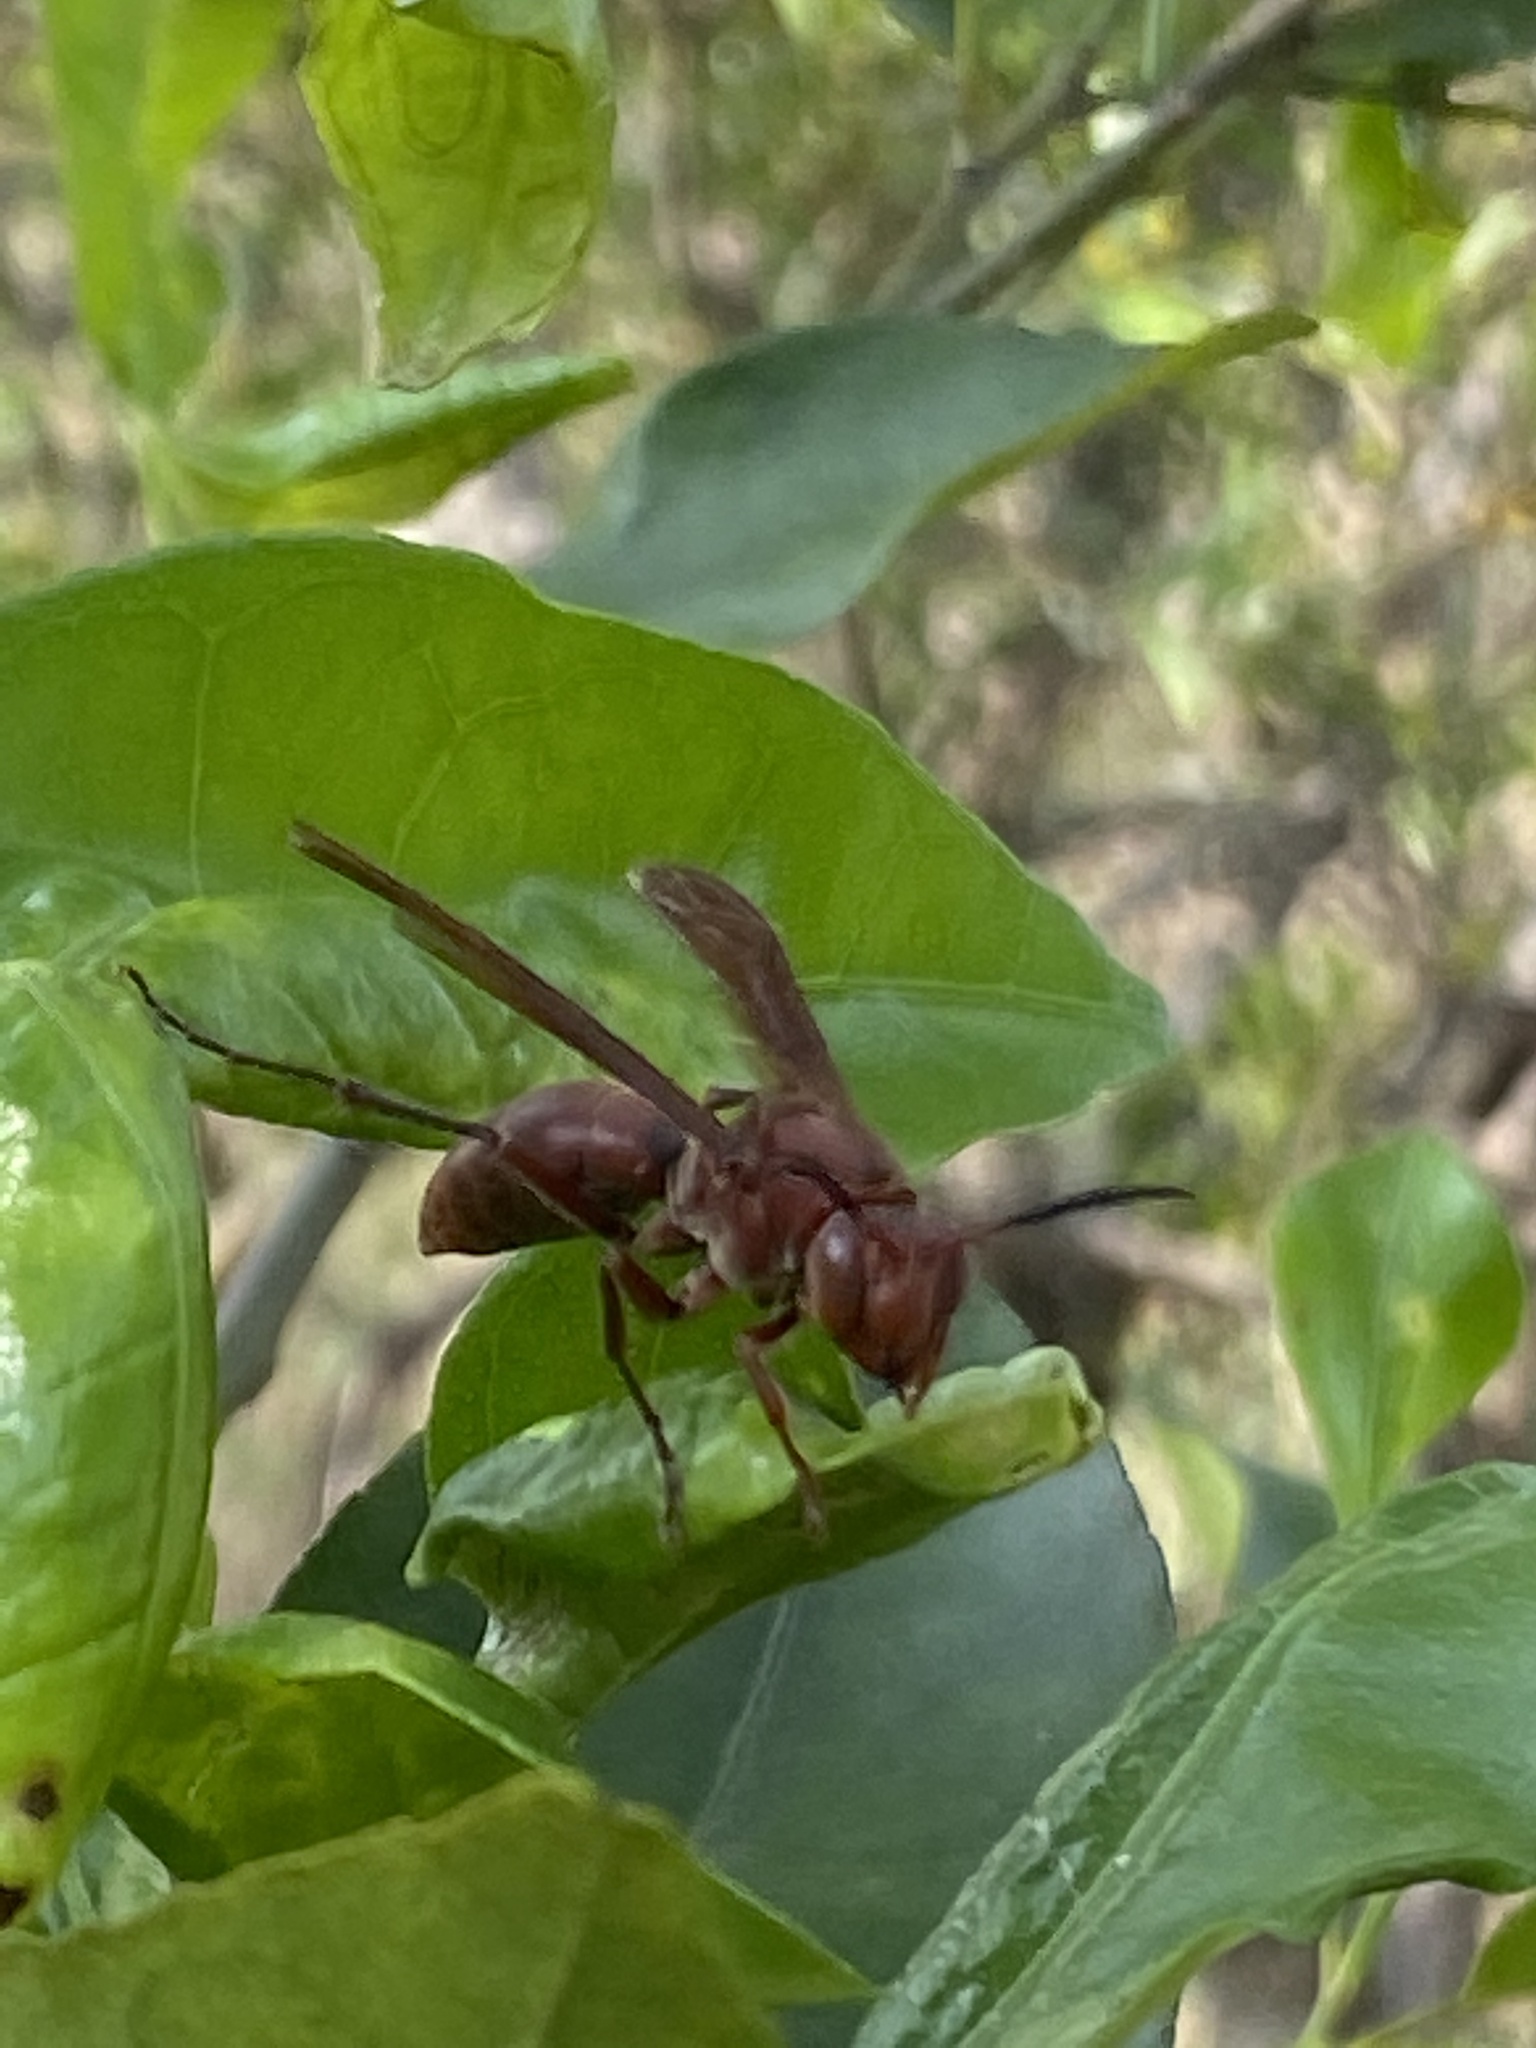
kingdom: Animalia
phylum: Arthropoda
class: Insecta
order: Hymenoptera
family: Eumenidae
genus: Polistes
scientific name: Polistes tenebricosus
